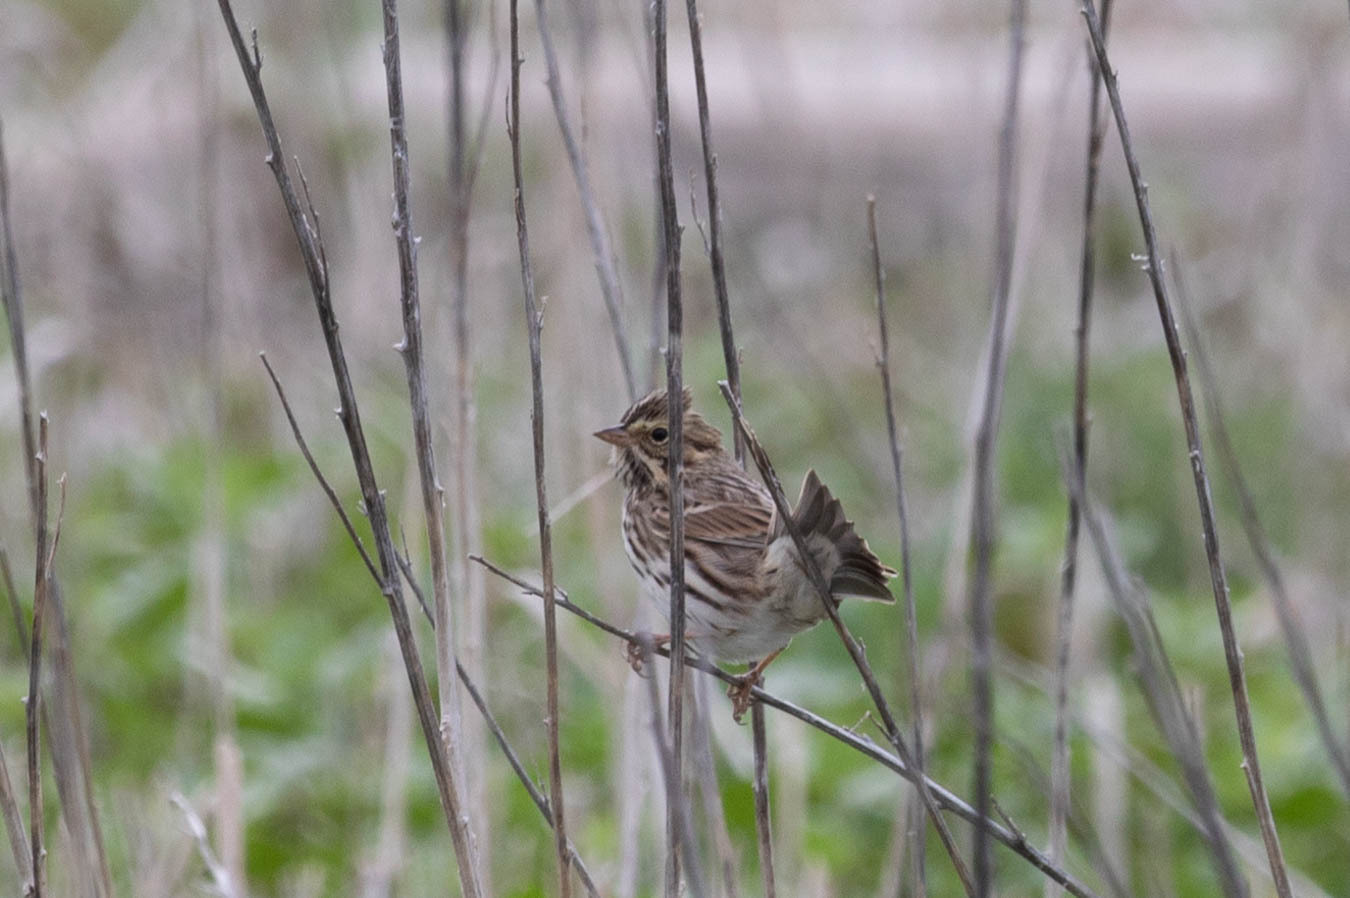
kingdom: Animalia
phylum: Chordata
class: Aves
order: Passeriformes
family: Passerellidae
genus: Passerculus
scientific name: Passerculus sandwichensis
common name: Savannah sparrow
